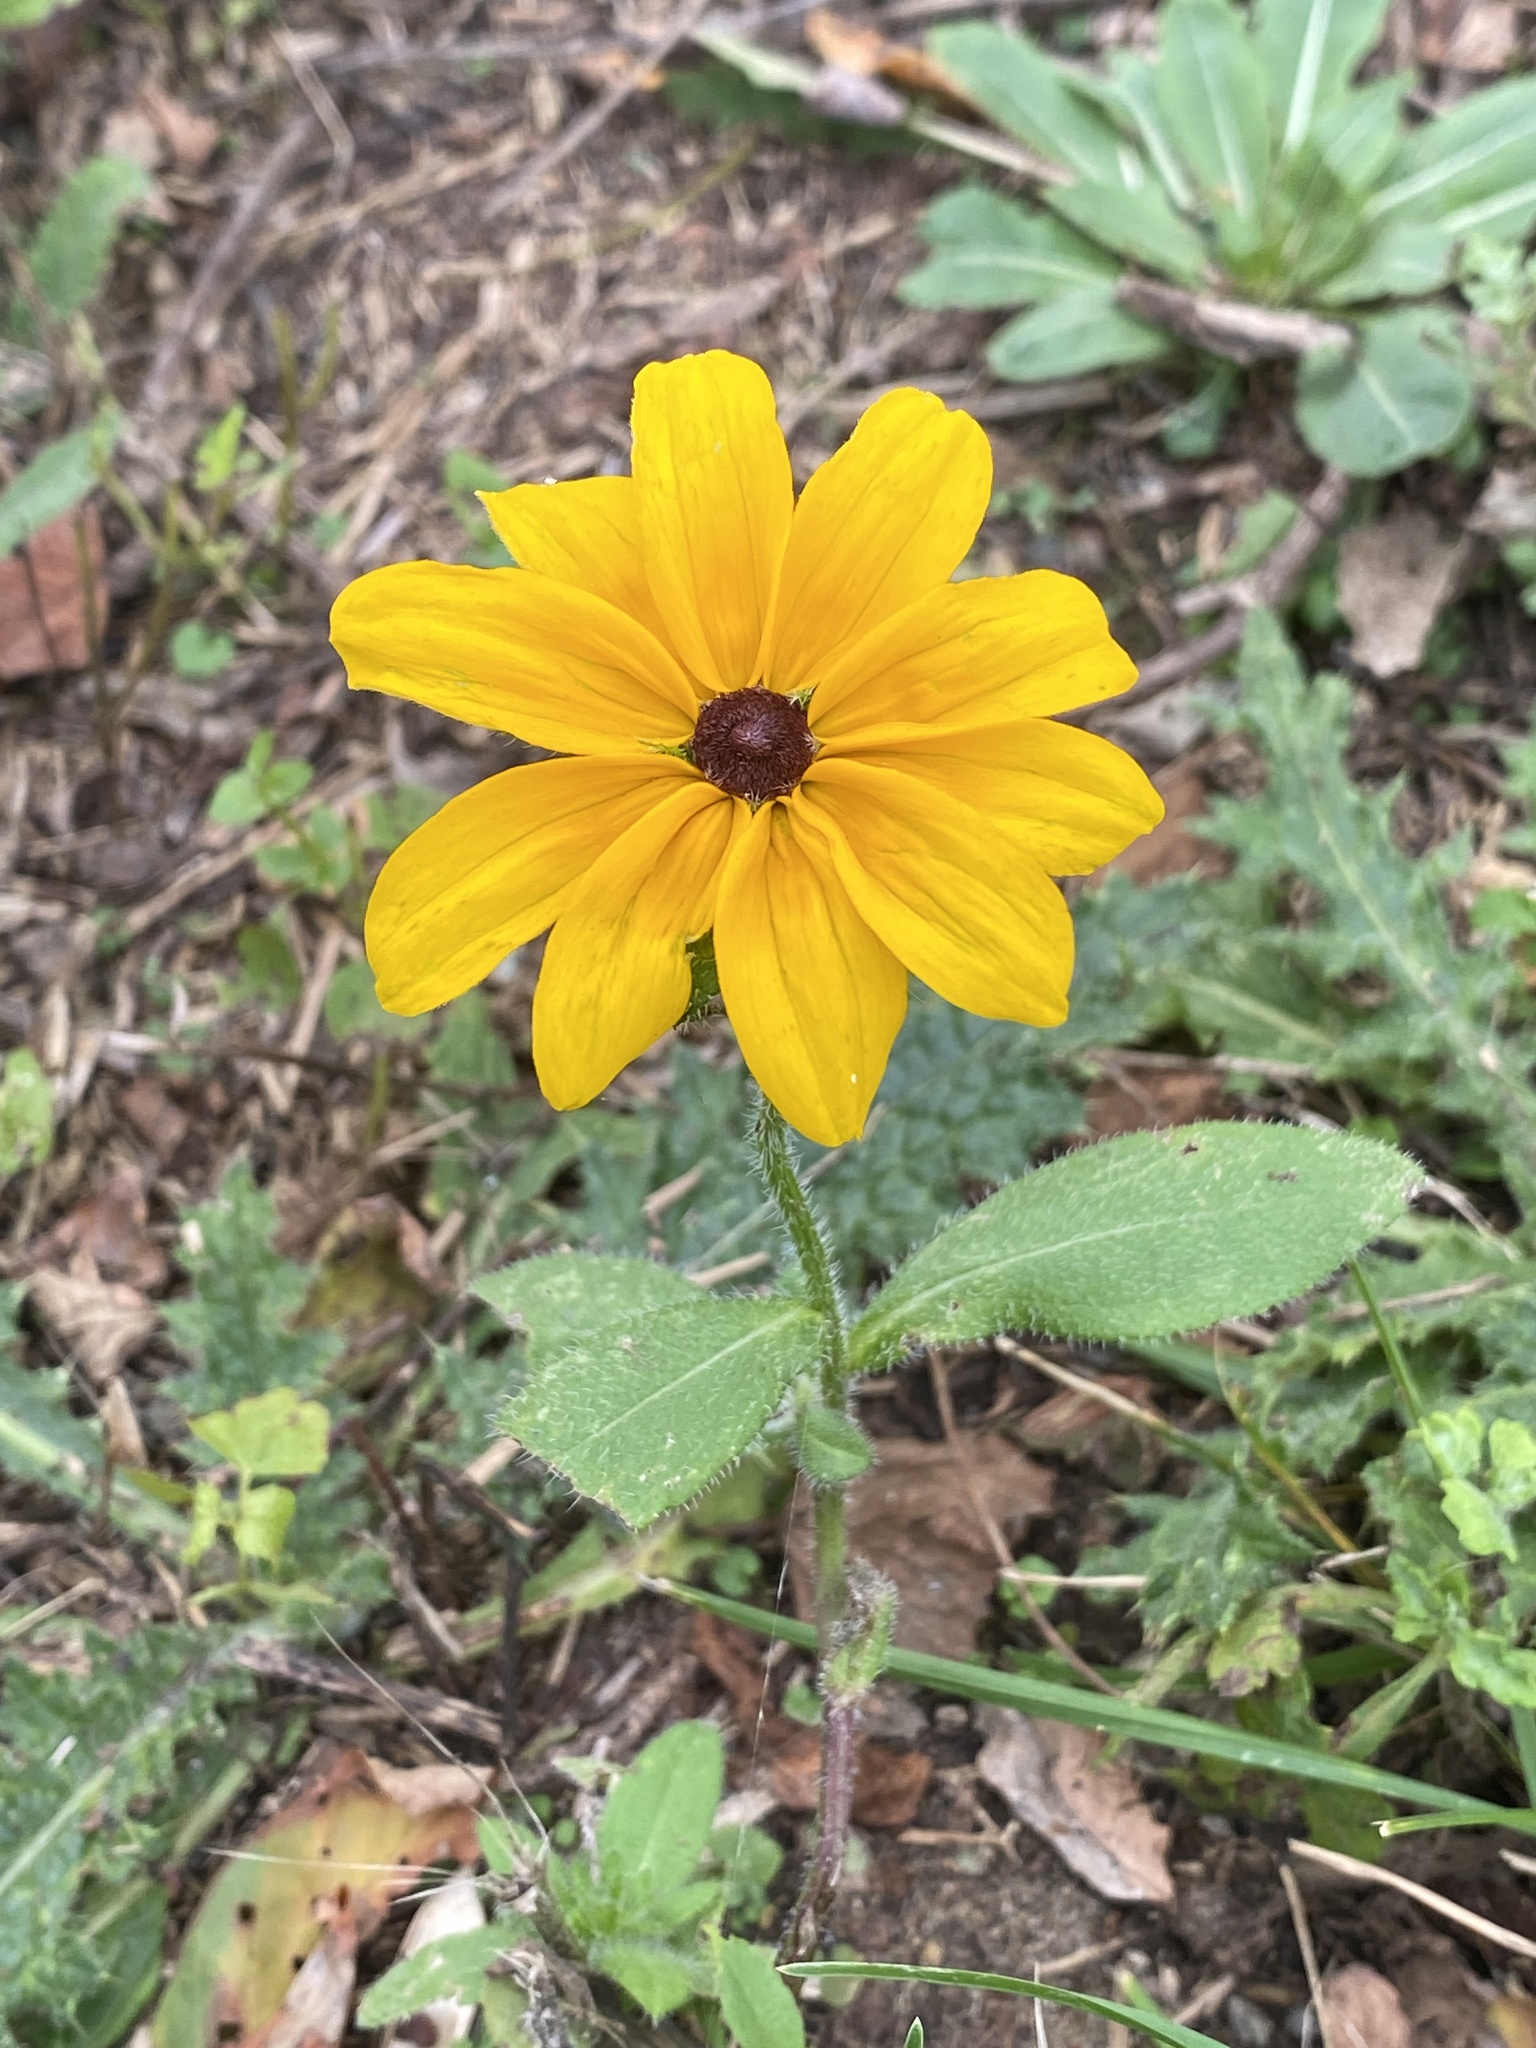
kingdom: Plantae
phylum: Tracheophyta
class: Magnoliopsida
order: Asterales
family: Asteraceae
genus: Rudbeckia
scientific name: Rudbeckia hirta
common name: Black-eyed-susan
